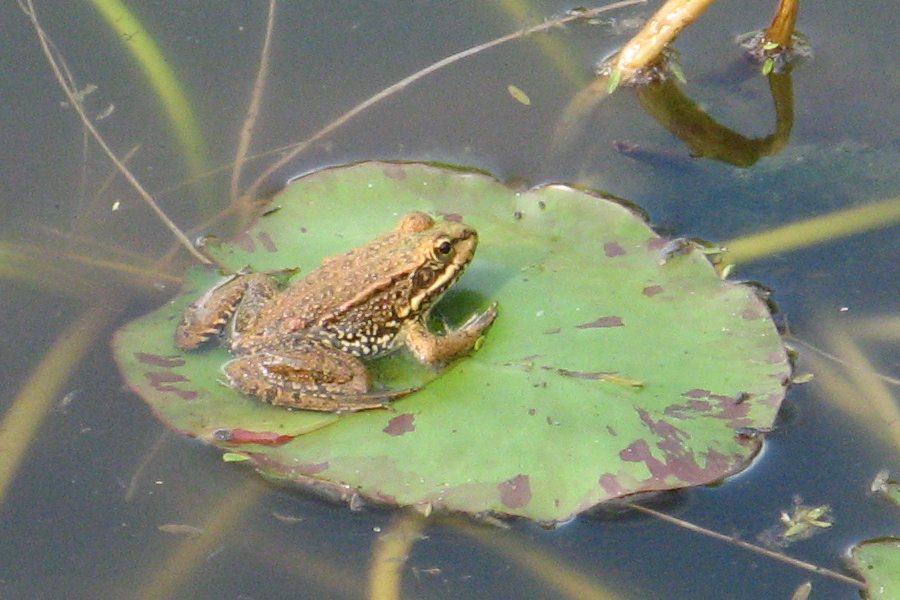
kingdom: Animalia
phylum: Chordata
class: Amphibia
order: Anura
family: Ranidae
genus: Pelophylax
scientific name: Pelophylax perezi
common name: Perez's frog
